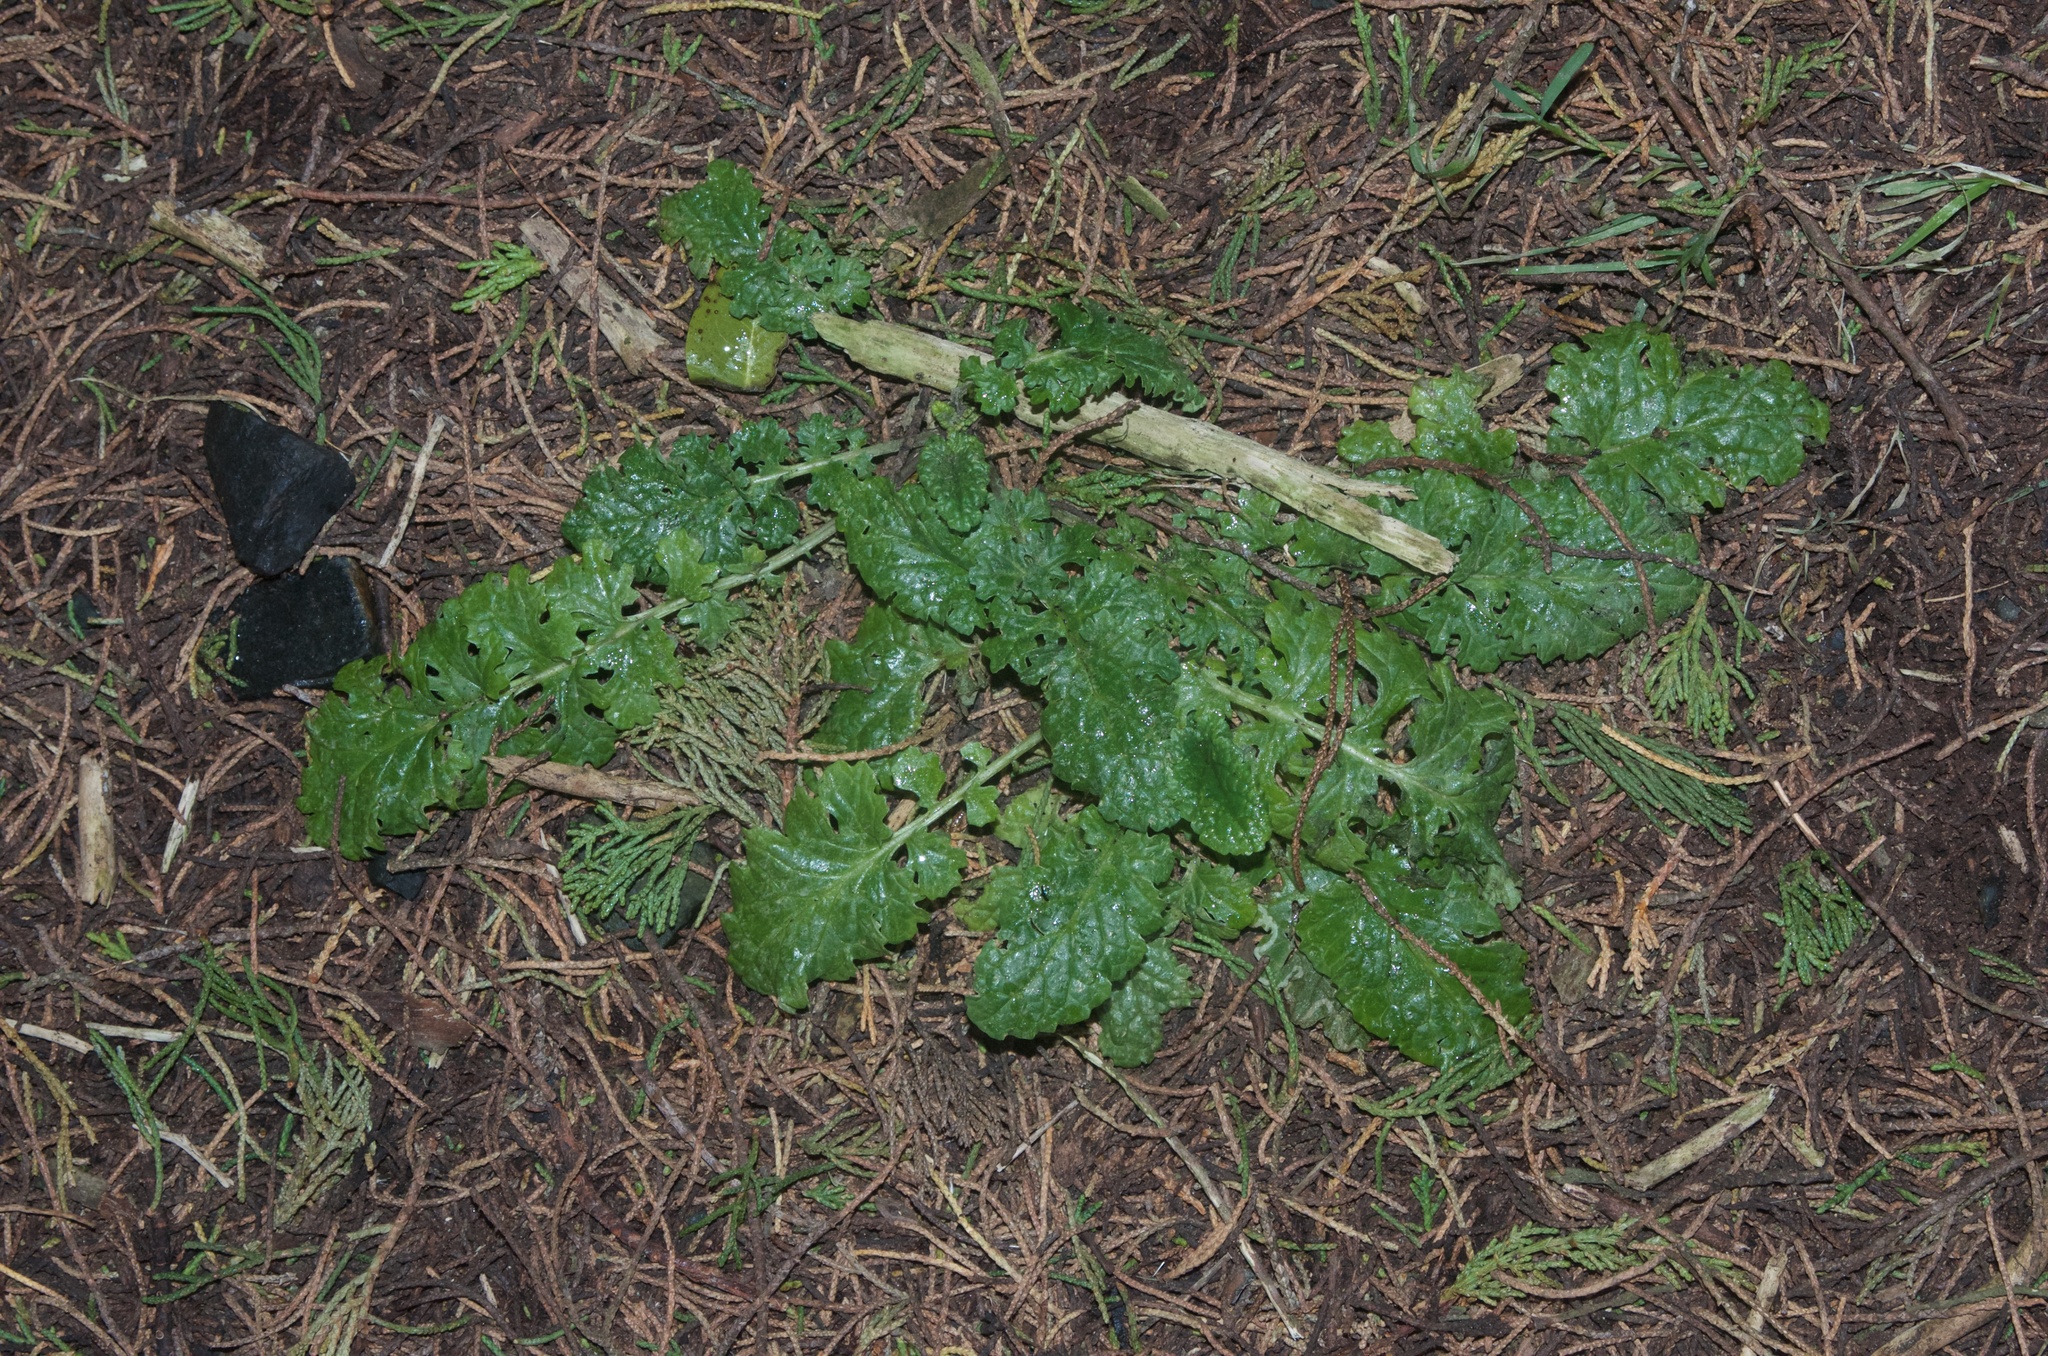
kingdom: Plantae
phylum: Tracheophyta
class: Magnoliopsida
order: Asterales
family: Asteraceae
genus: Jacobaea
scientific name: Jacobaea vulgaris
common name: Stinking willie
